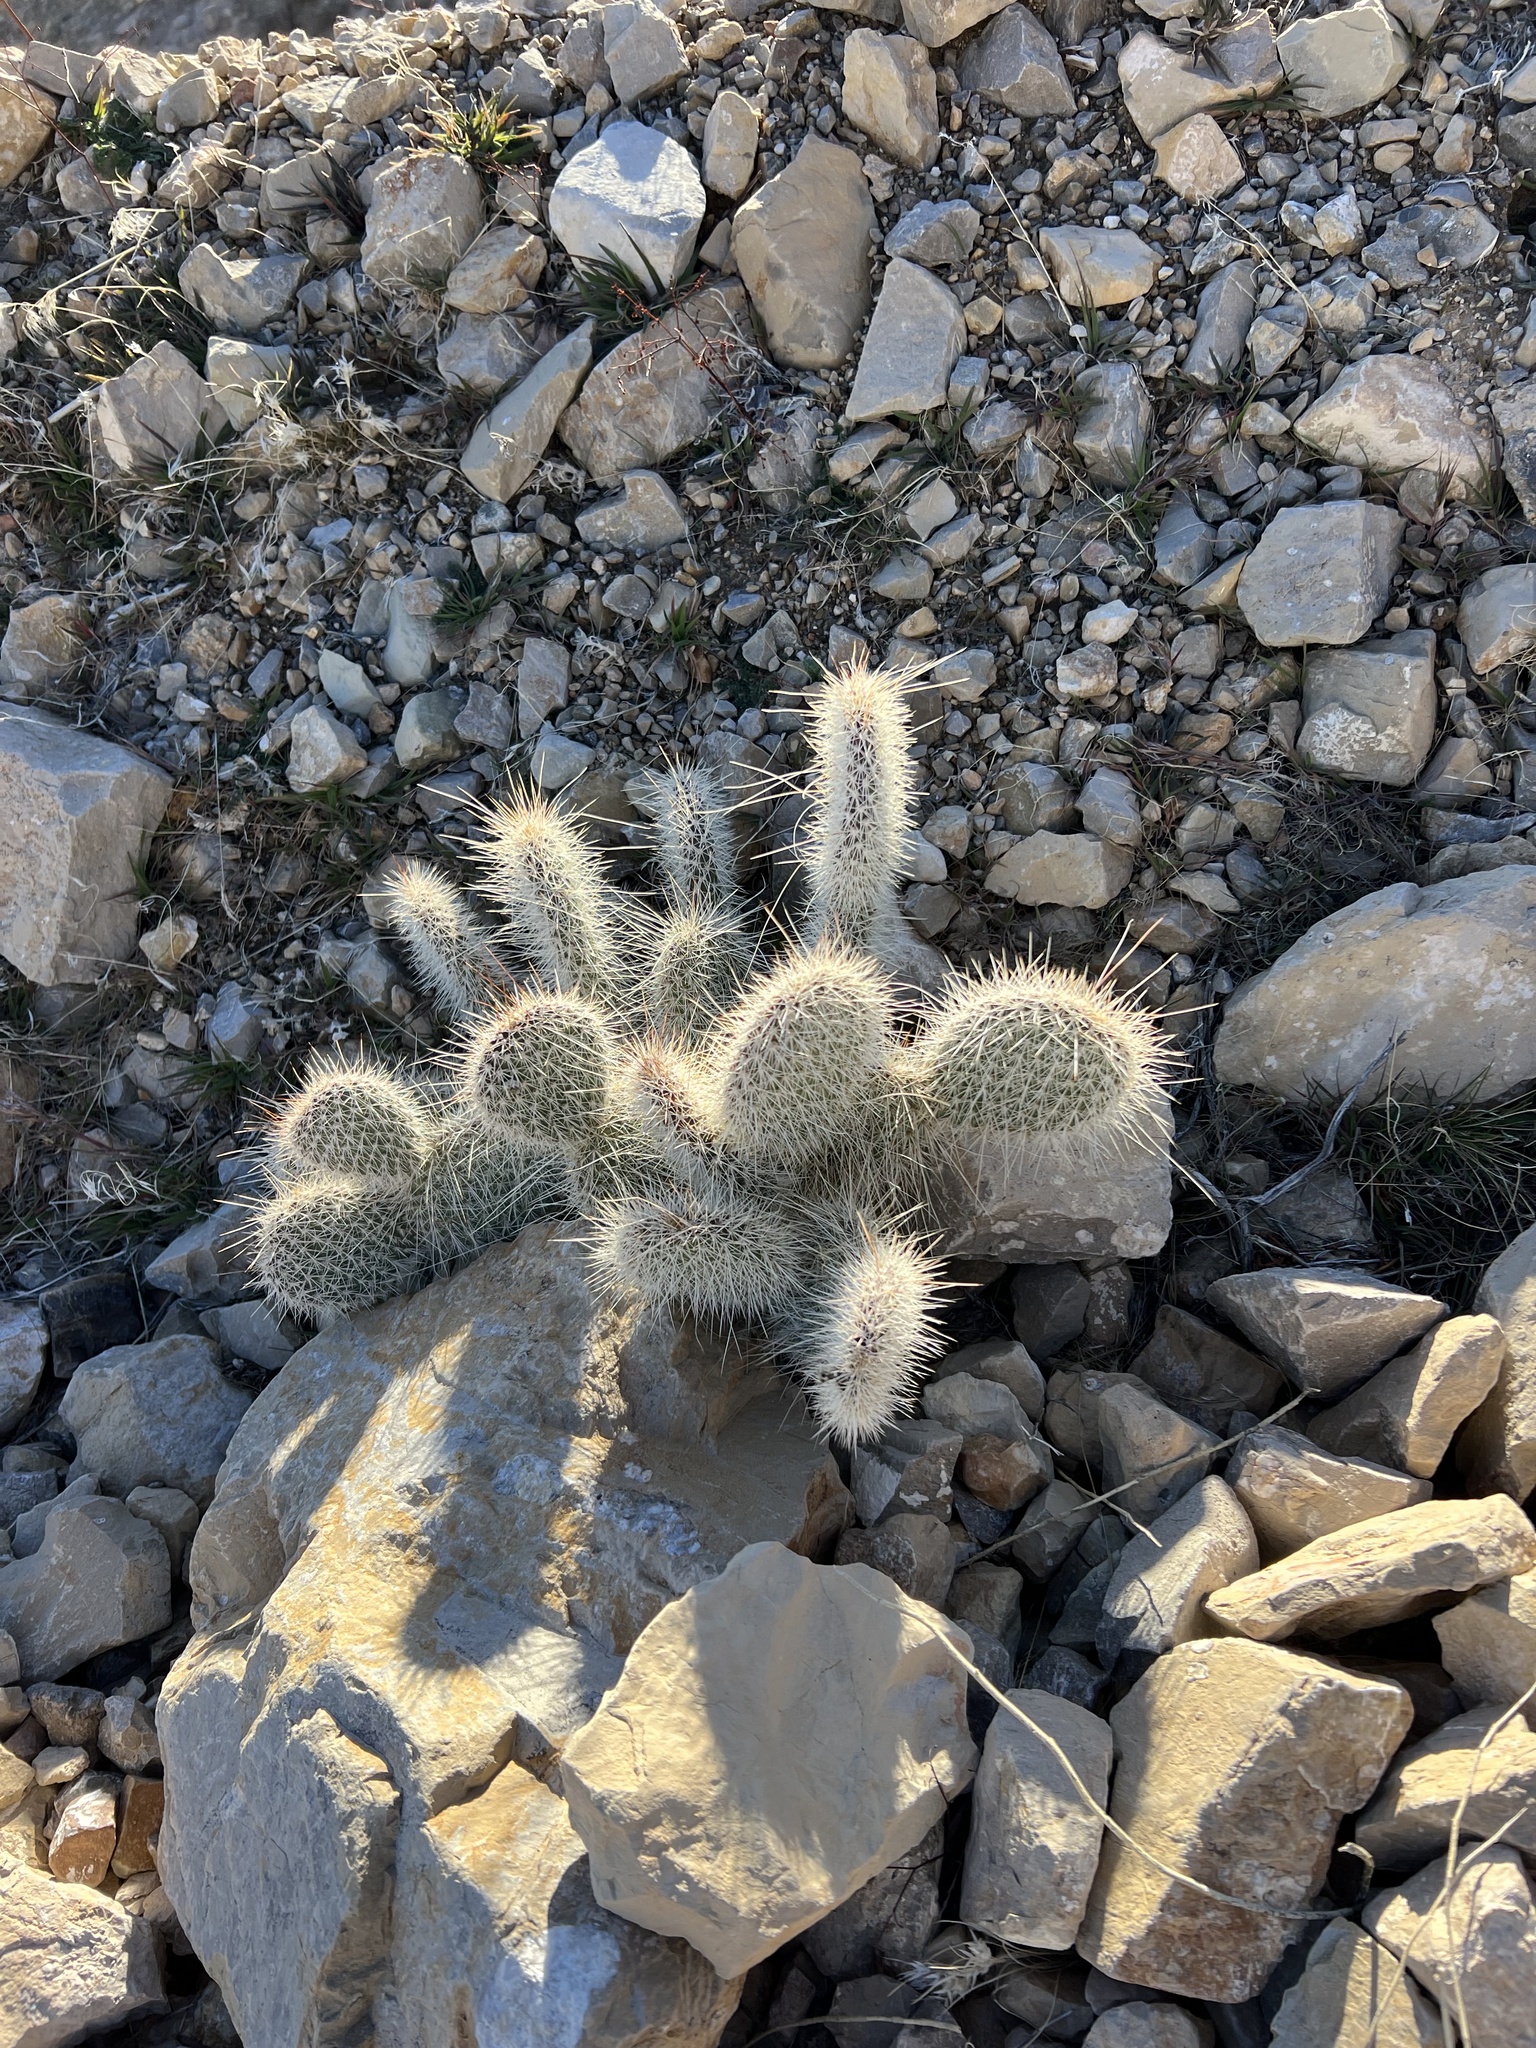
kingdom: Plantae
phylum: Tracheophyta
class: Magnoliopsida
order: Caryophyllales
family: Cactaceae
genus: Opuntia
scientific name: Opuntia polyacantha
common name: Plains prickly-pear
